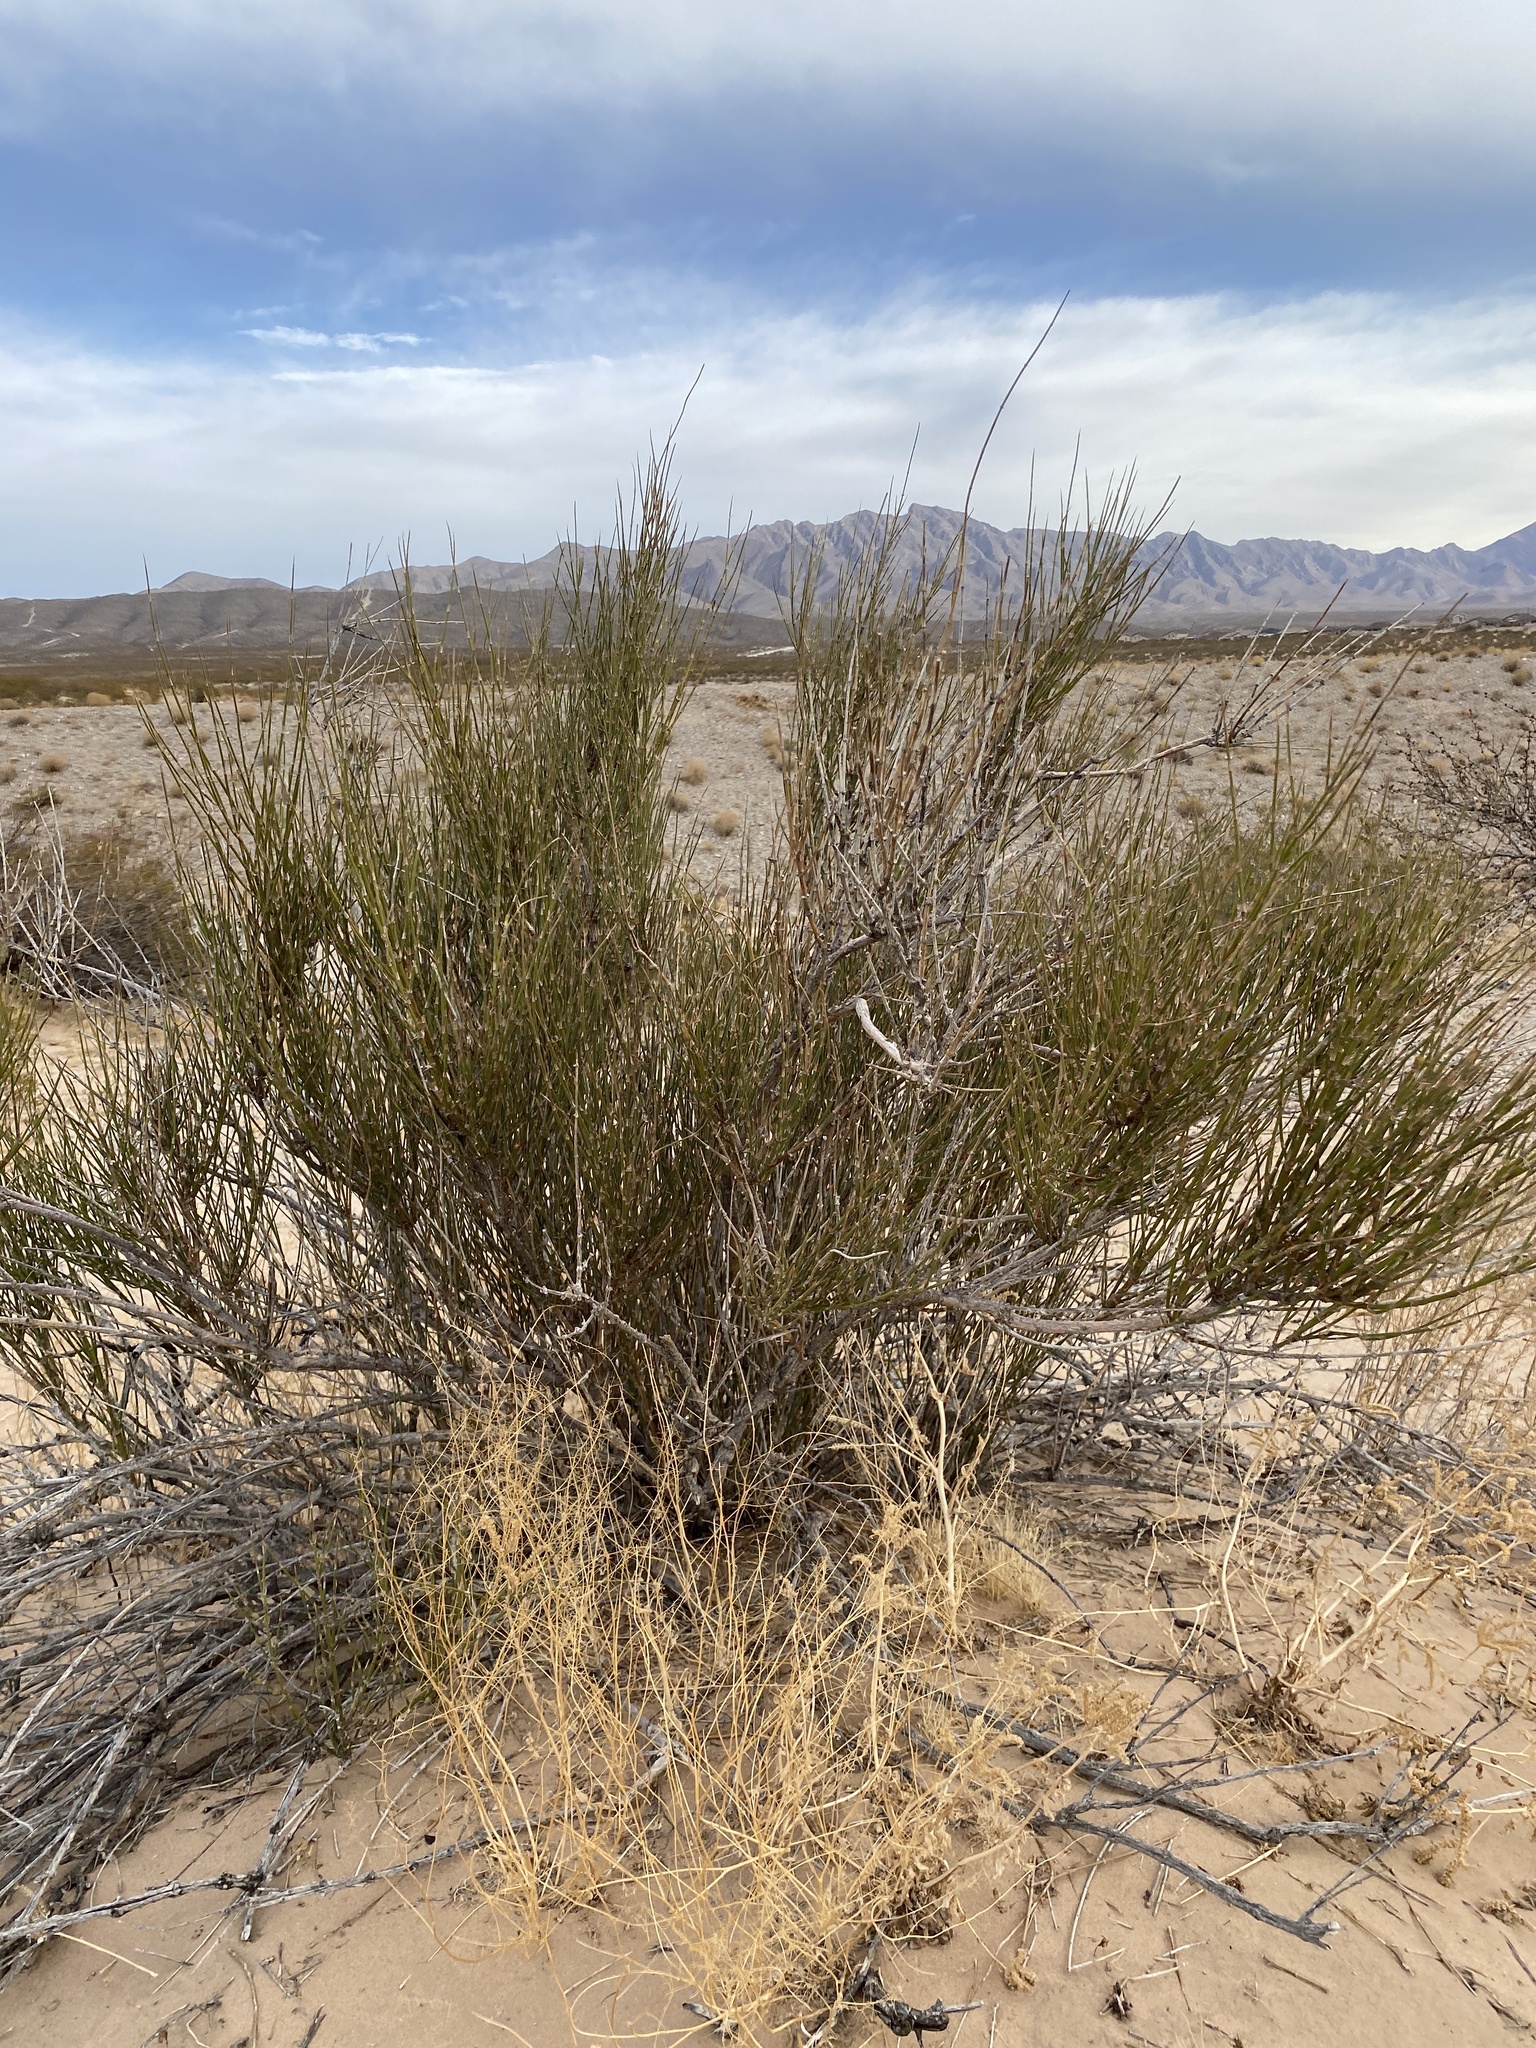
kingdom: Plantae
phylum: Tracheophyta
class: Gnetopsida
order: Ephedrales
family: Ephedraceae
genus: Ephedra
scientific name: Ephedra trifurca
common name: Mexican-tea
